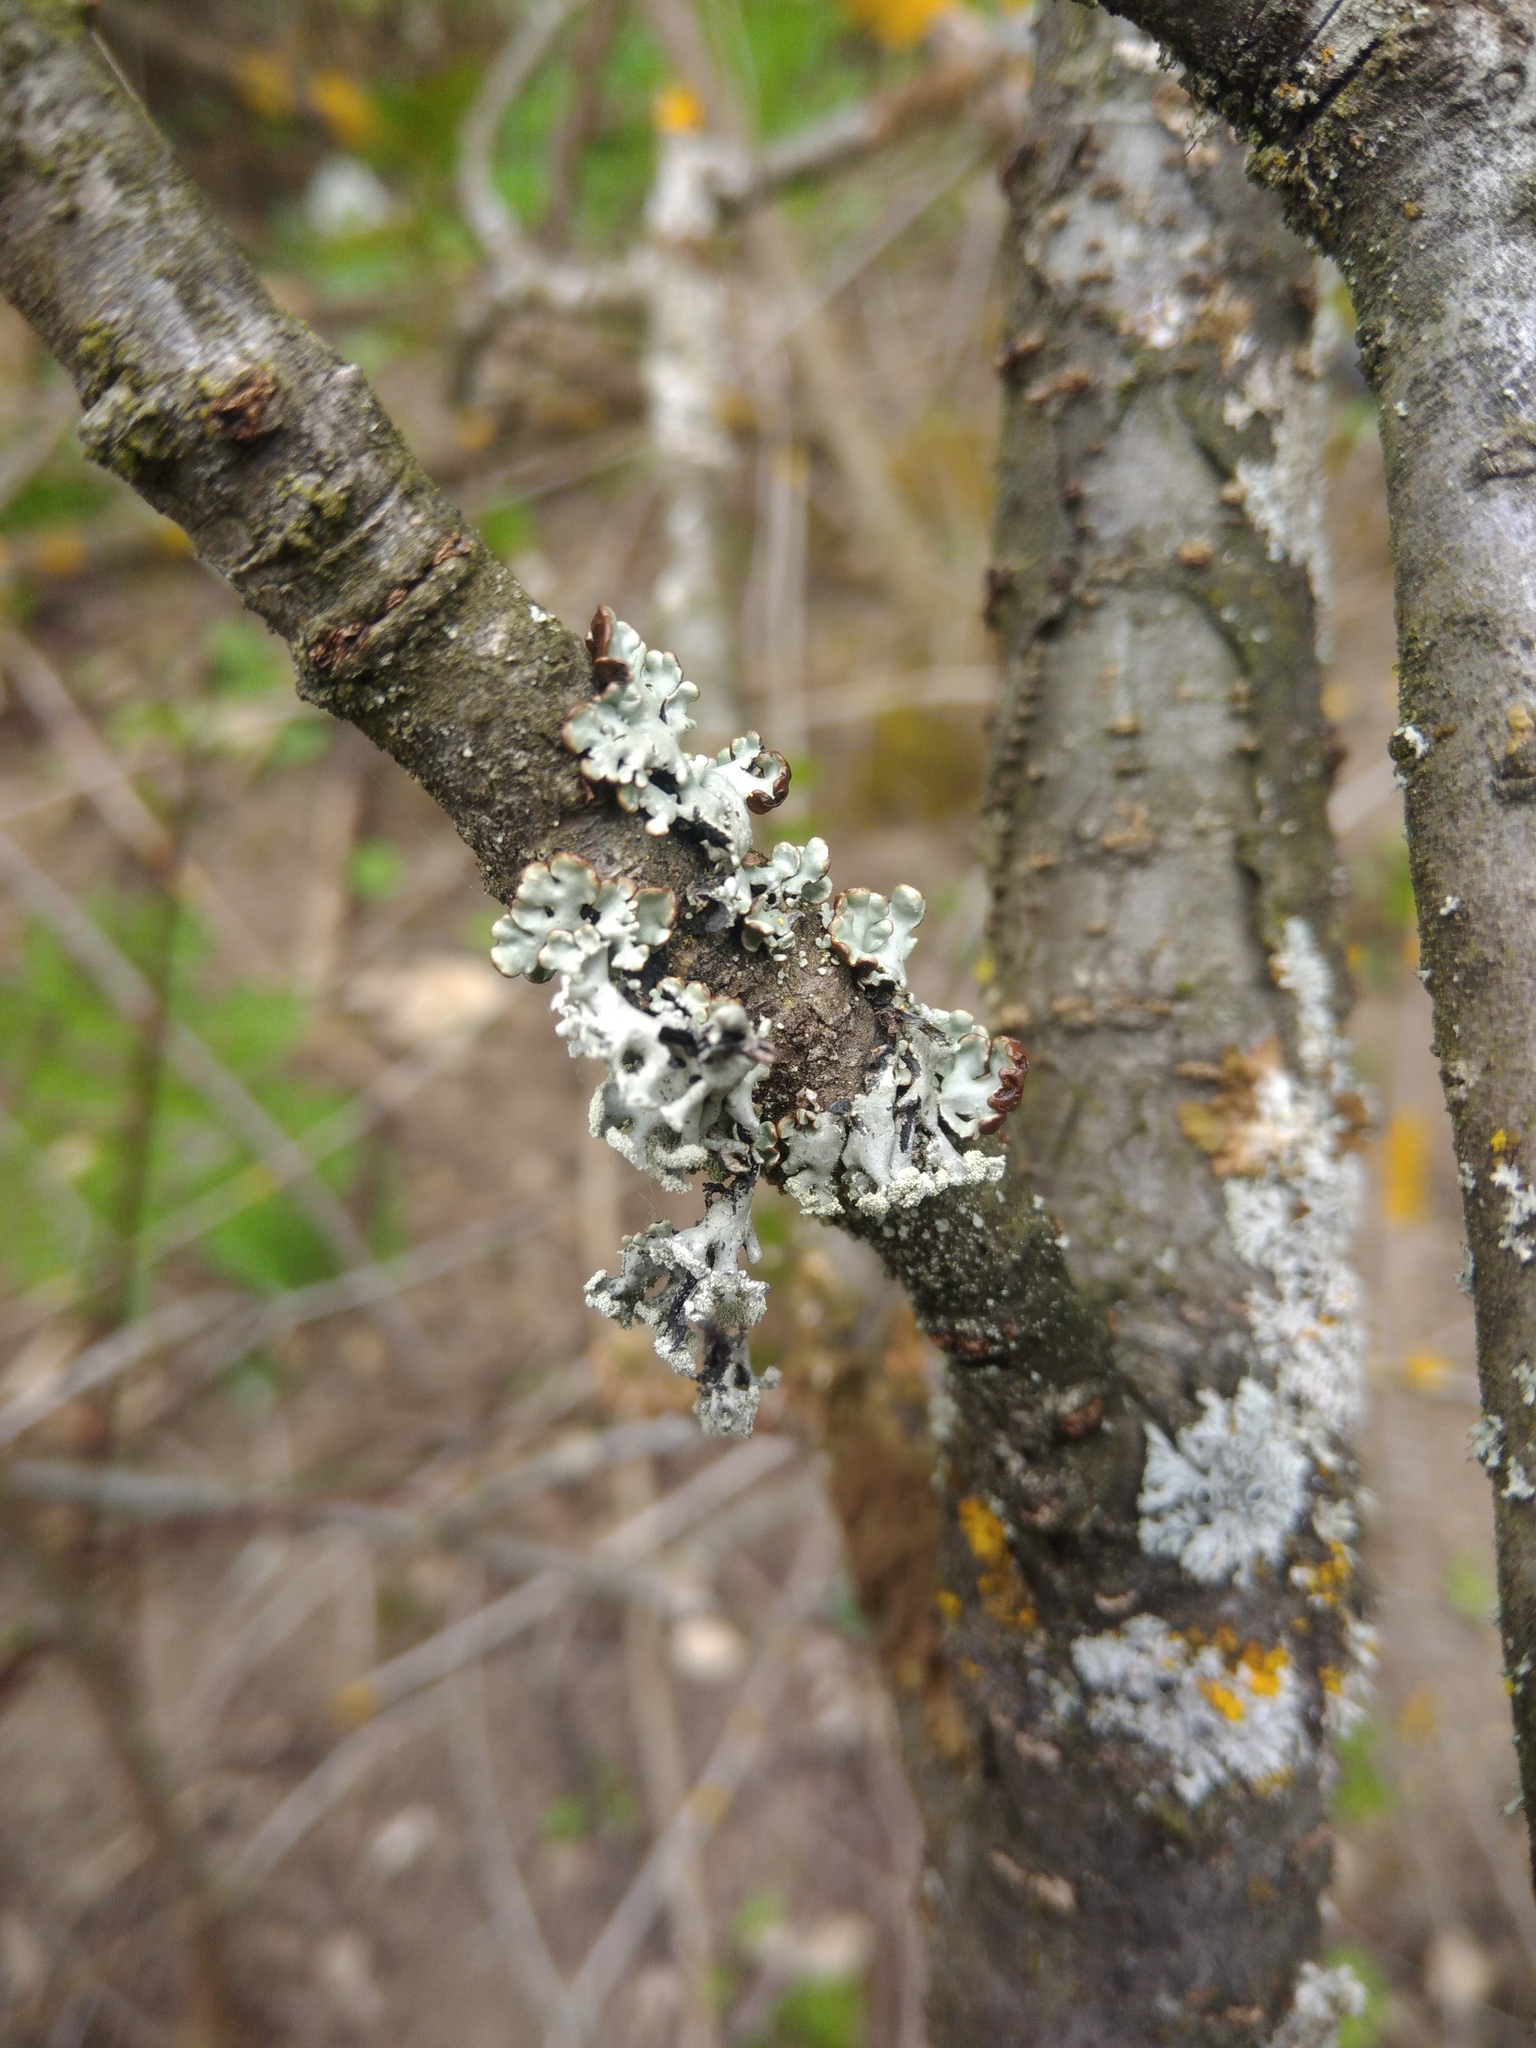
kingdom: Fungi
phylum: Ascomycota
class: Lecanoromycetes
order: Lecanorales
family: Parmeliaceae
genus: Hypogymnia
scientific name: Hypogymnia physodes
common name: Dark crottle
